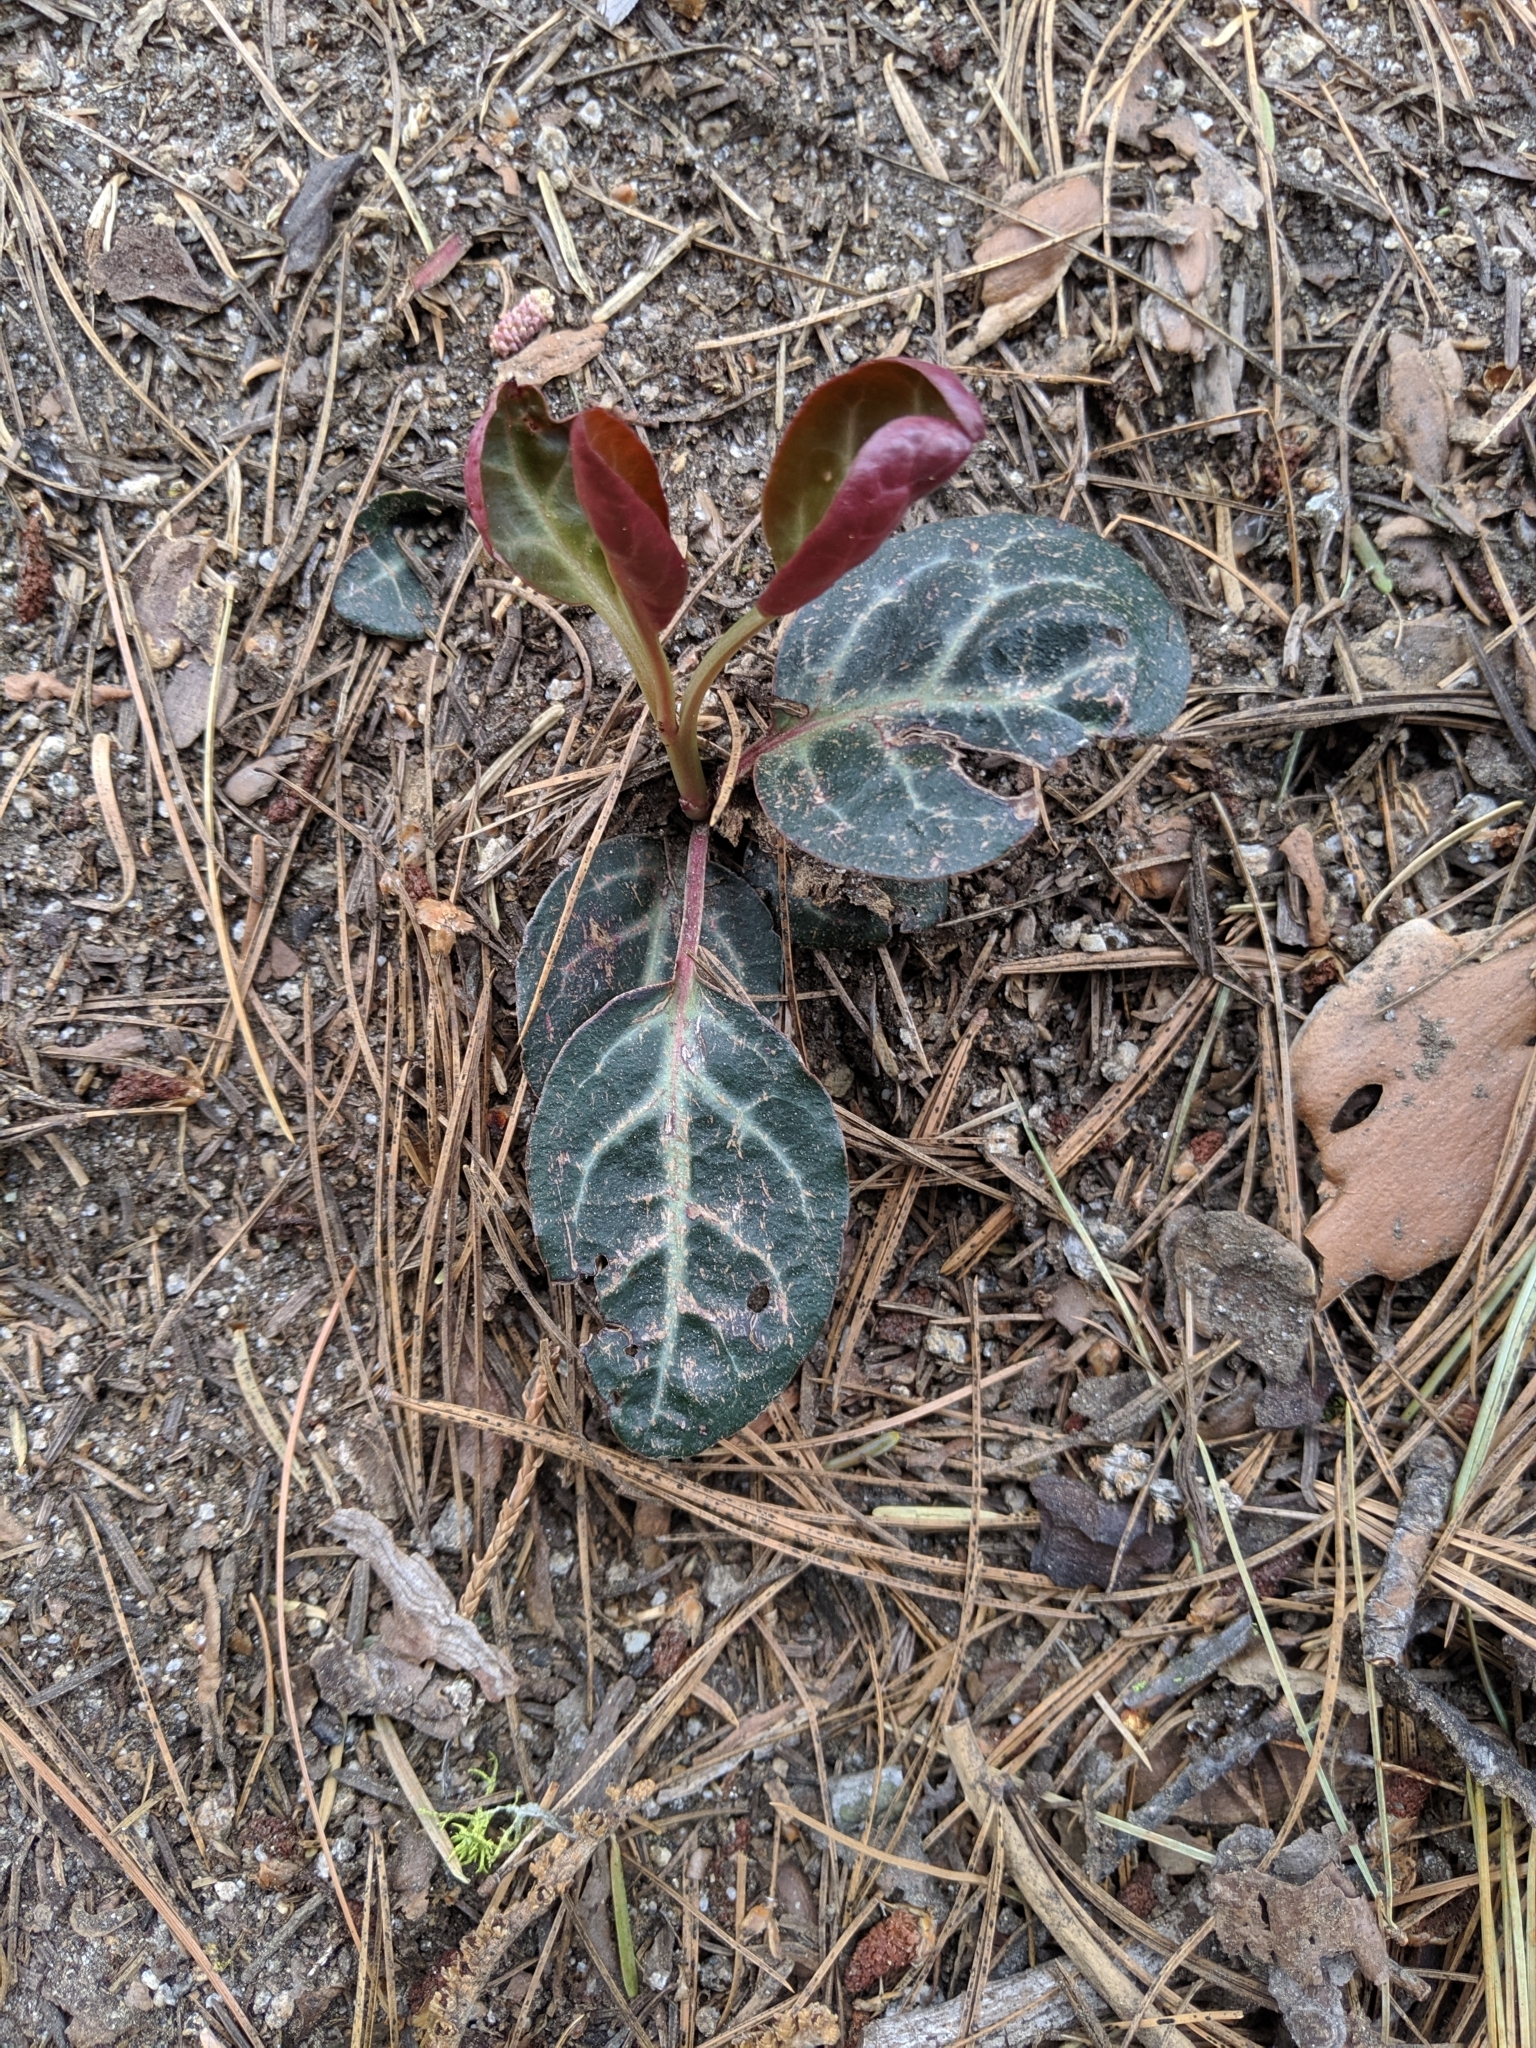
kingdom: Plantae
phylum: Tracheophyta
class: Magnoliopsida
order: Ericales
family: Ericaceae
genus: Pyrola
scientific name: Pyrola picta
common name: White-vein wintergreen
